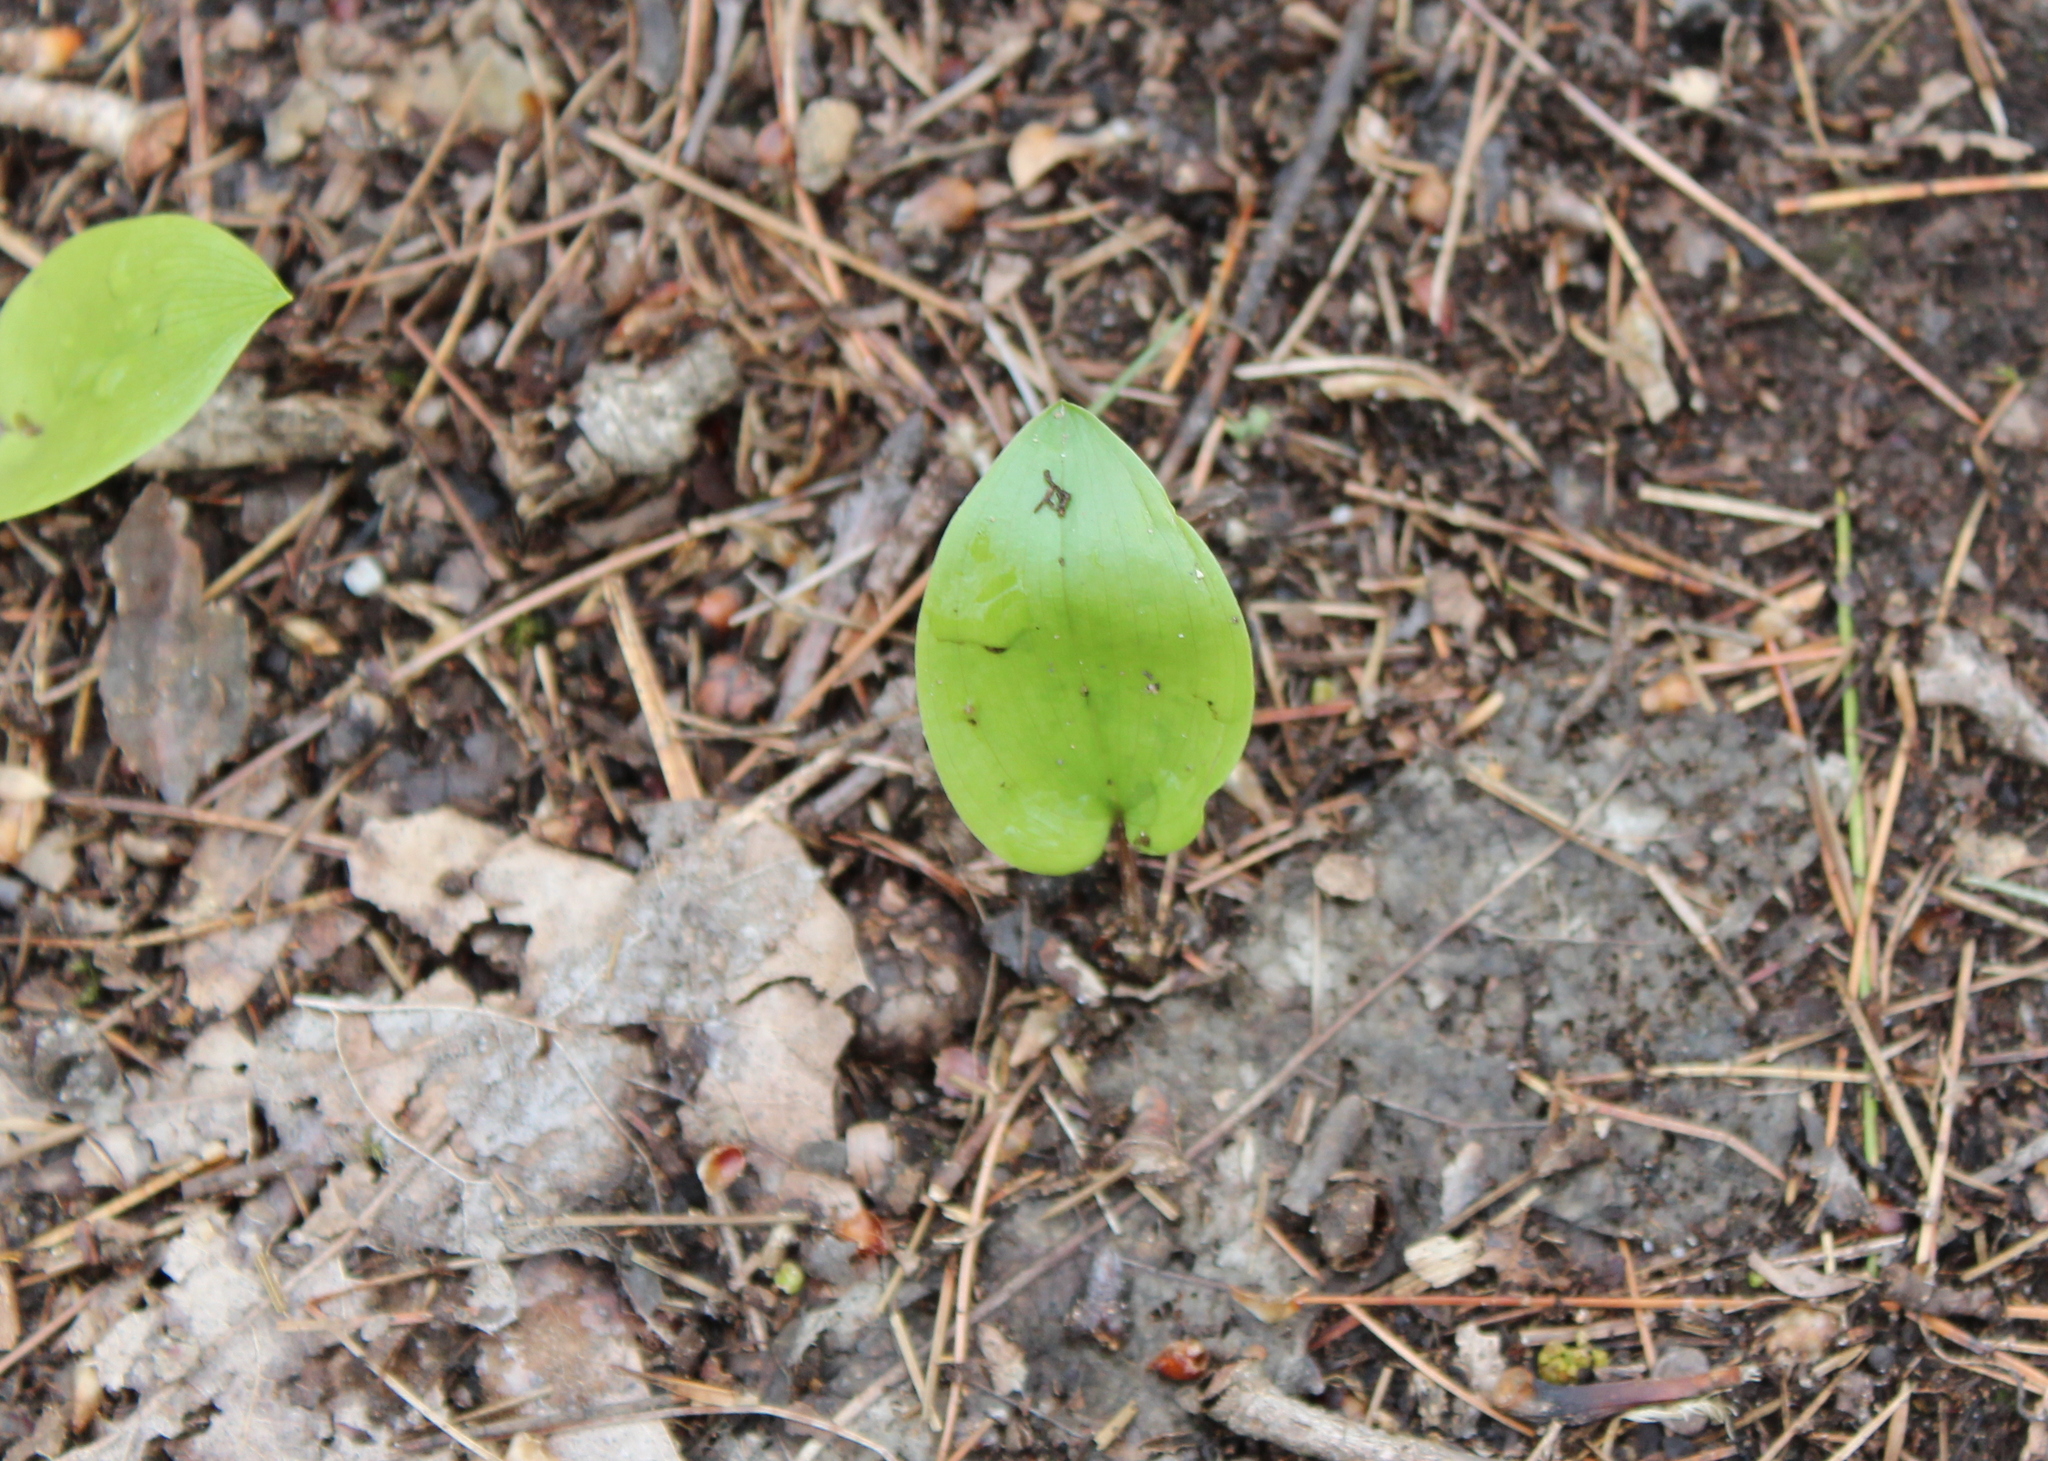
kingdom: Plantae
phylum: Tracheophyta
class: Liliopsida
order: Asparagales
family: Asparagaceae
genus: Maianthemum
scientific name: Maianthemum canadense
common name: False lily-of-the-valley
